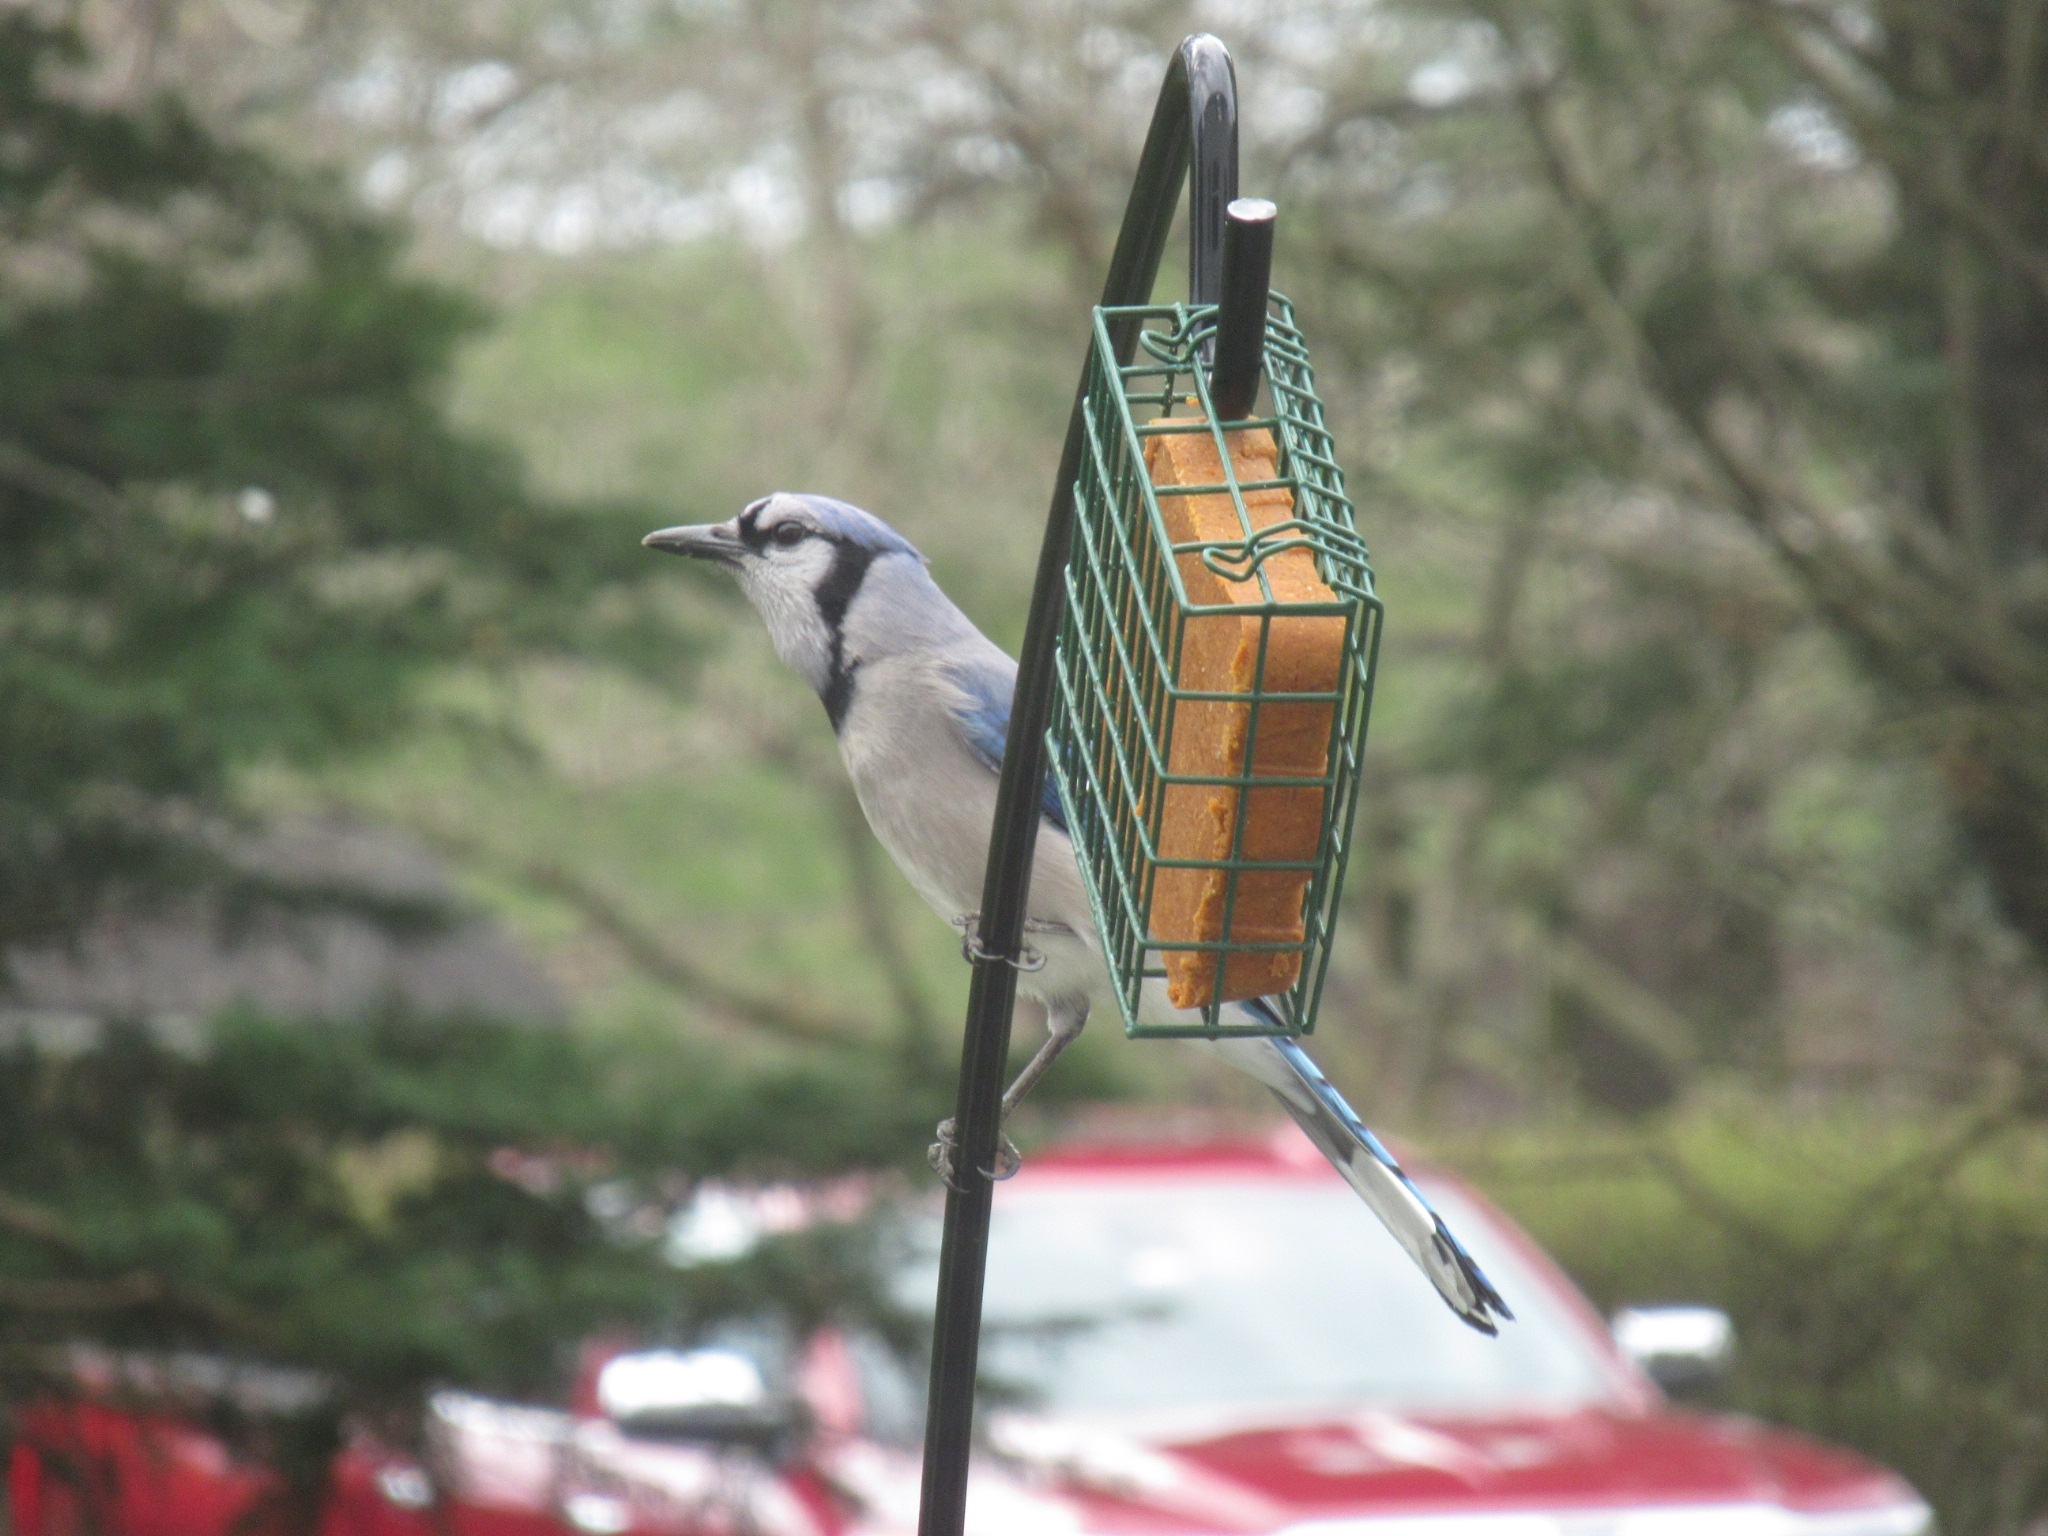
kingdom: Animalia
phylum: Chordata
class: Aves
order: Passeriformes
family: Corvidae
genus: Cyanocitta
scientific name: Cyanocitta cristata
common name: Blue jay
